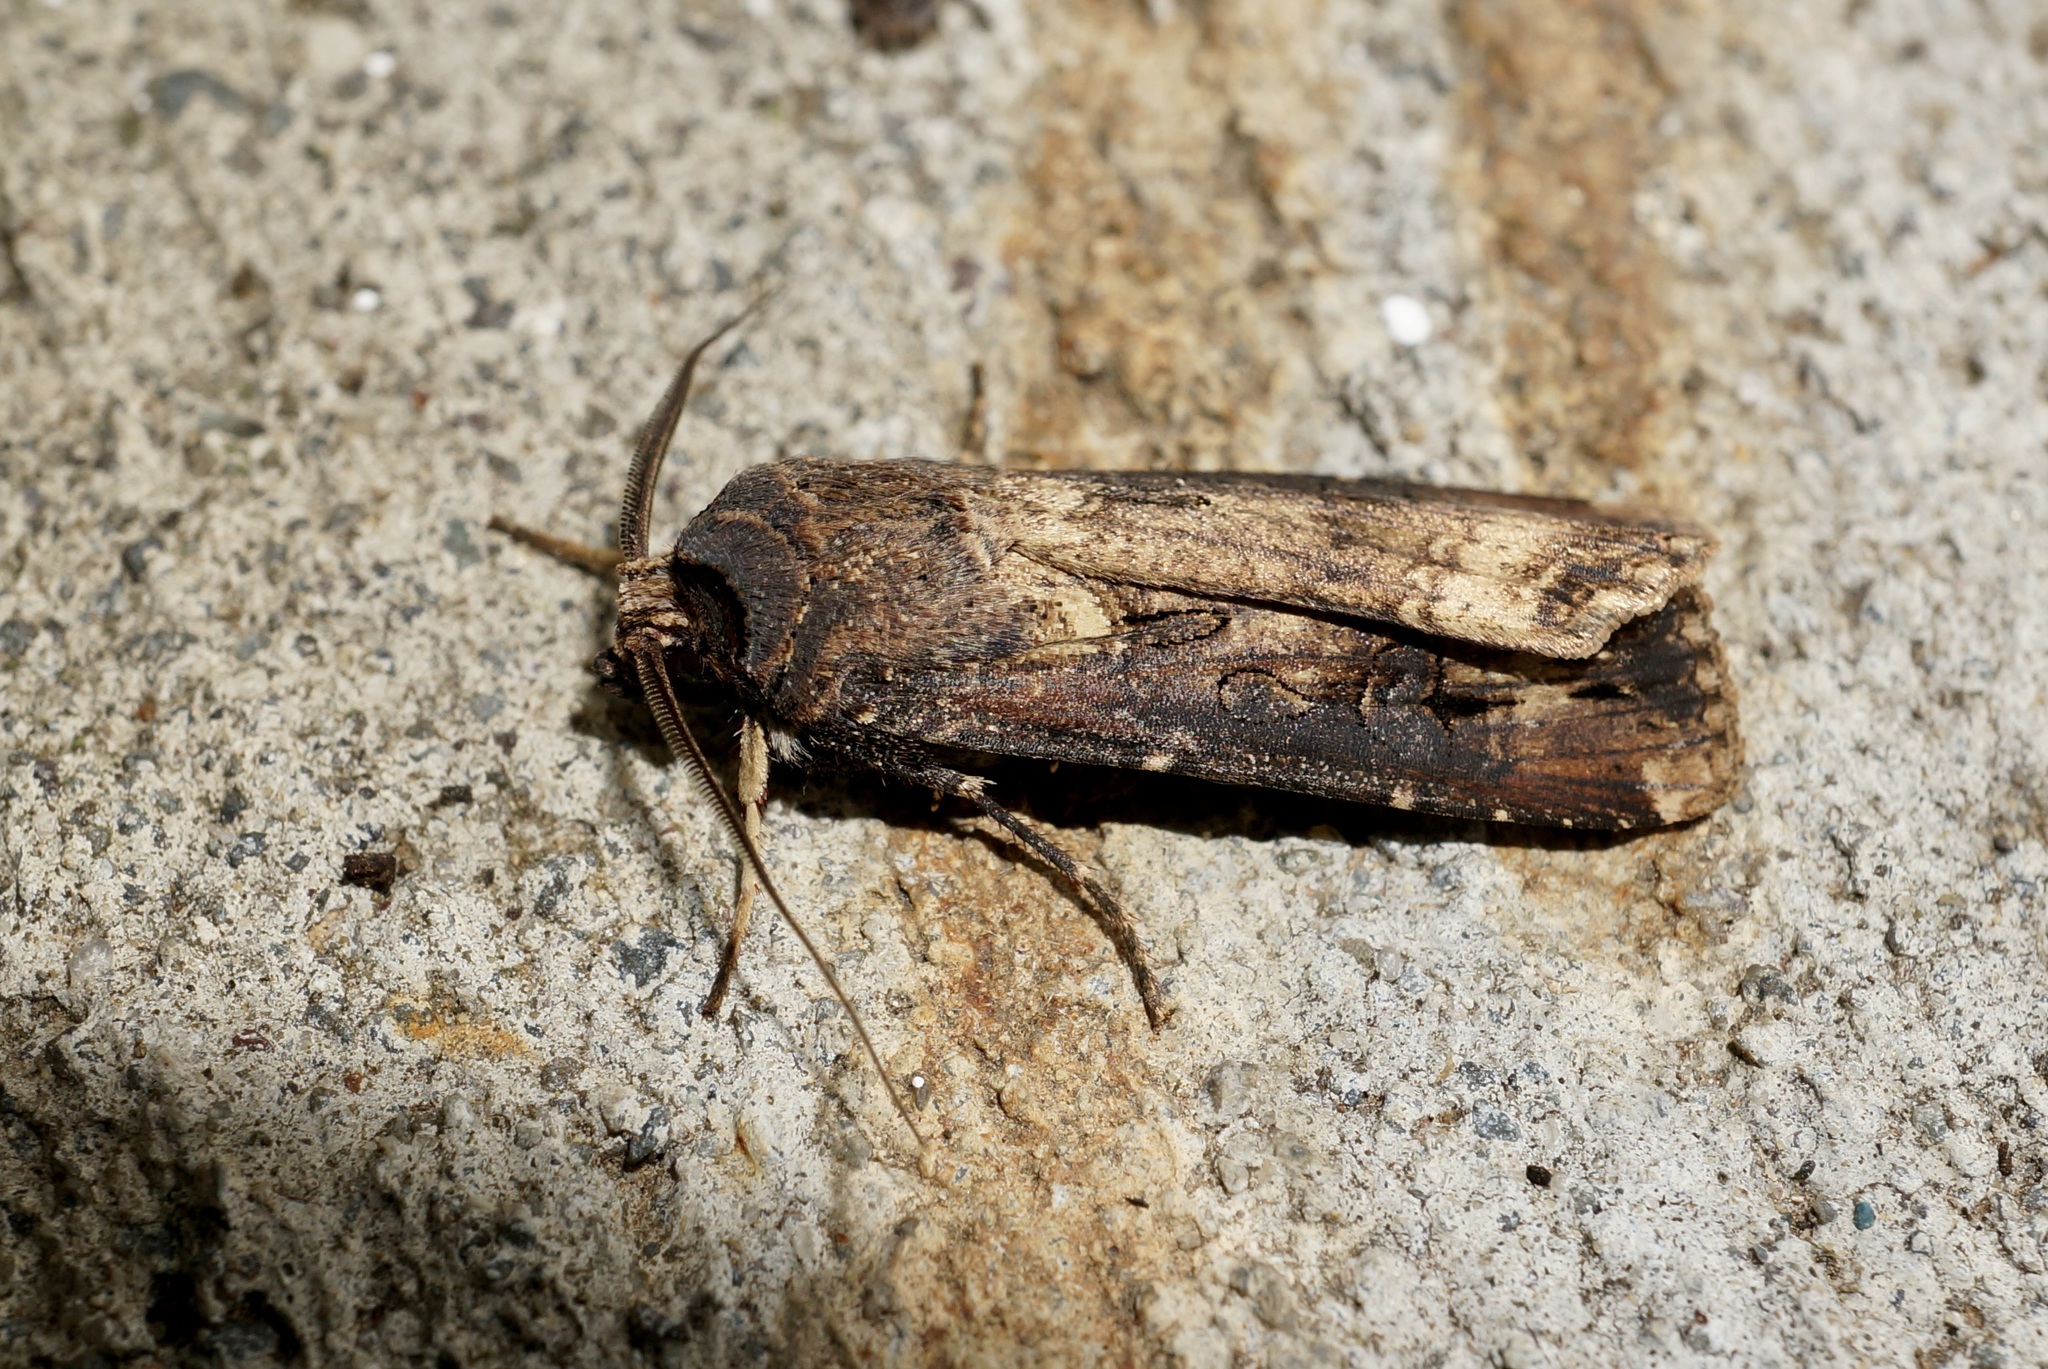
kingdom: Animalia
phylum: Arthropoda
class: Insecta
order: Lepidoptera
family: Noctuidae
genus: Agrotis
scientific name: Agrotis ipsilon
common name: Dark sword-grass
